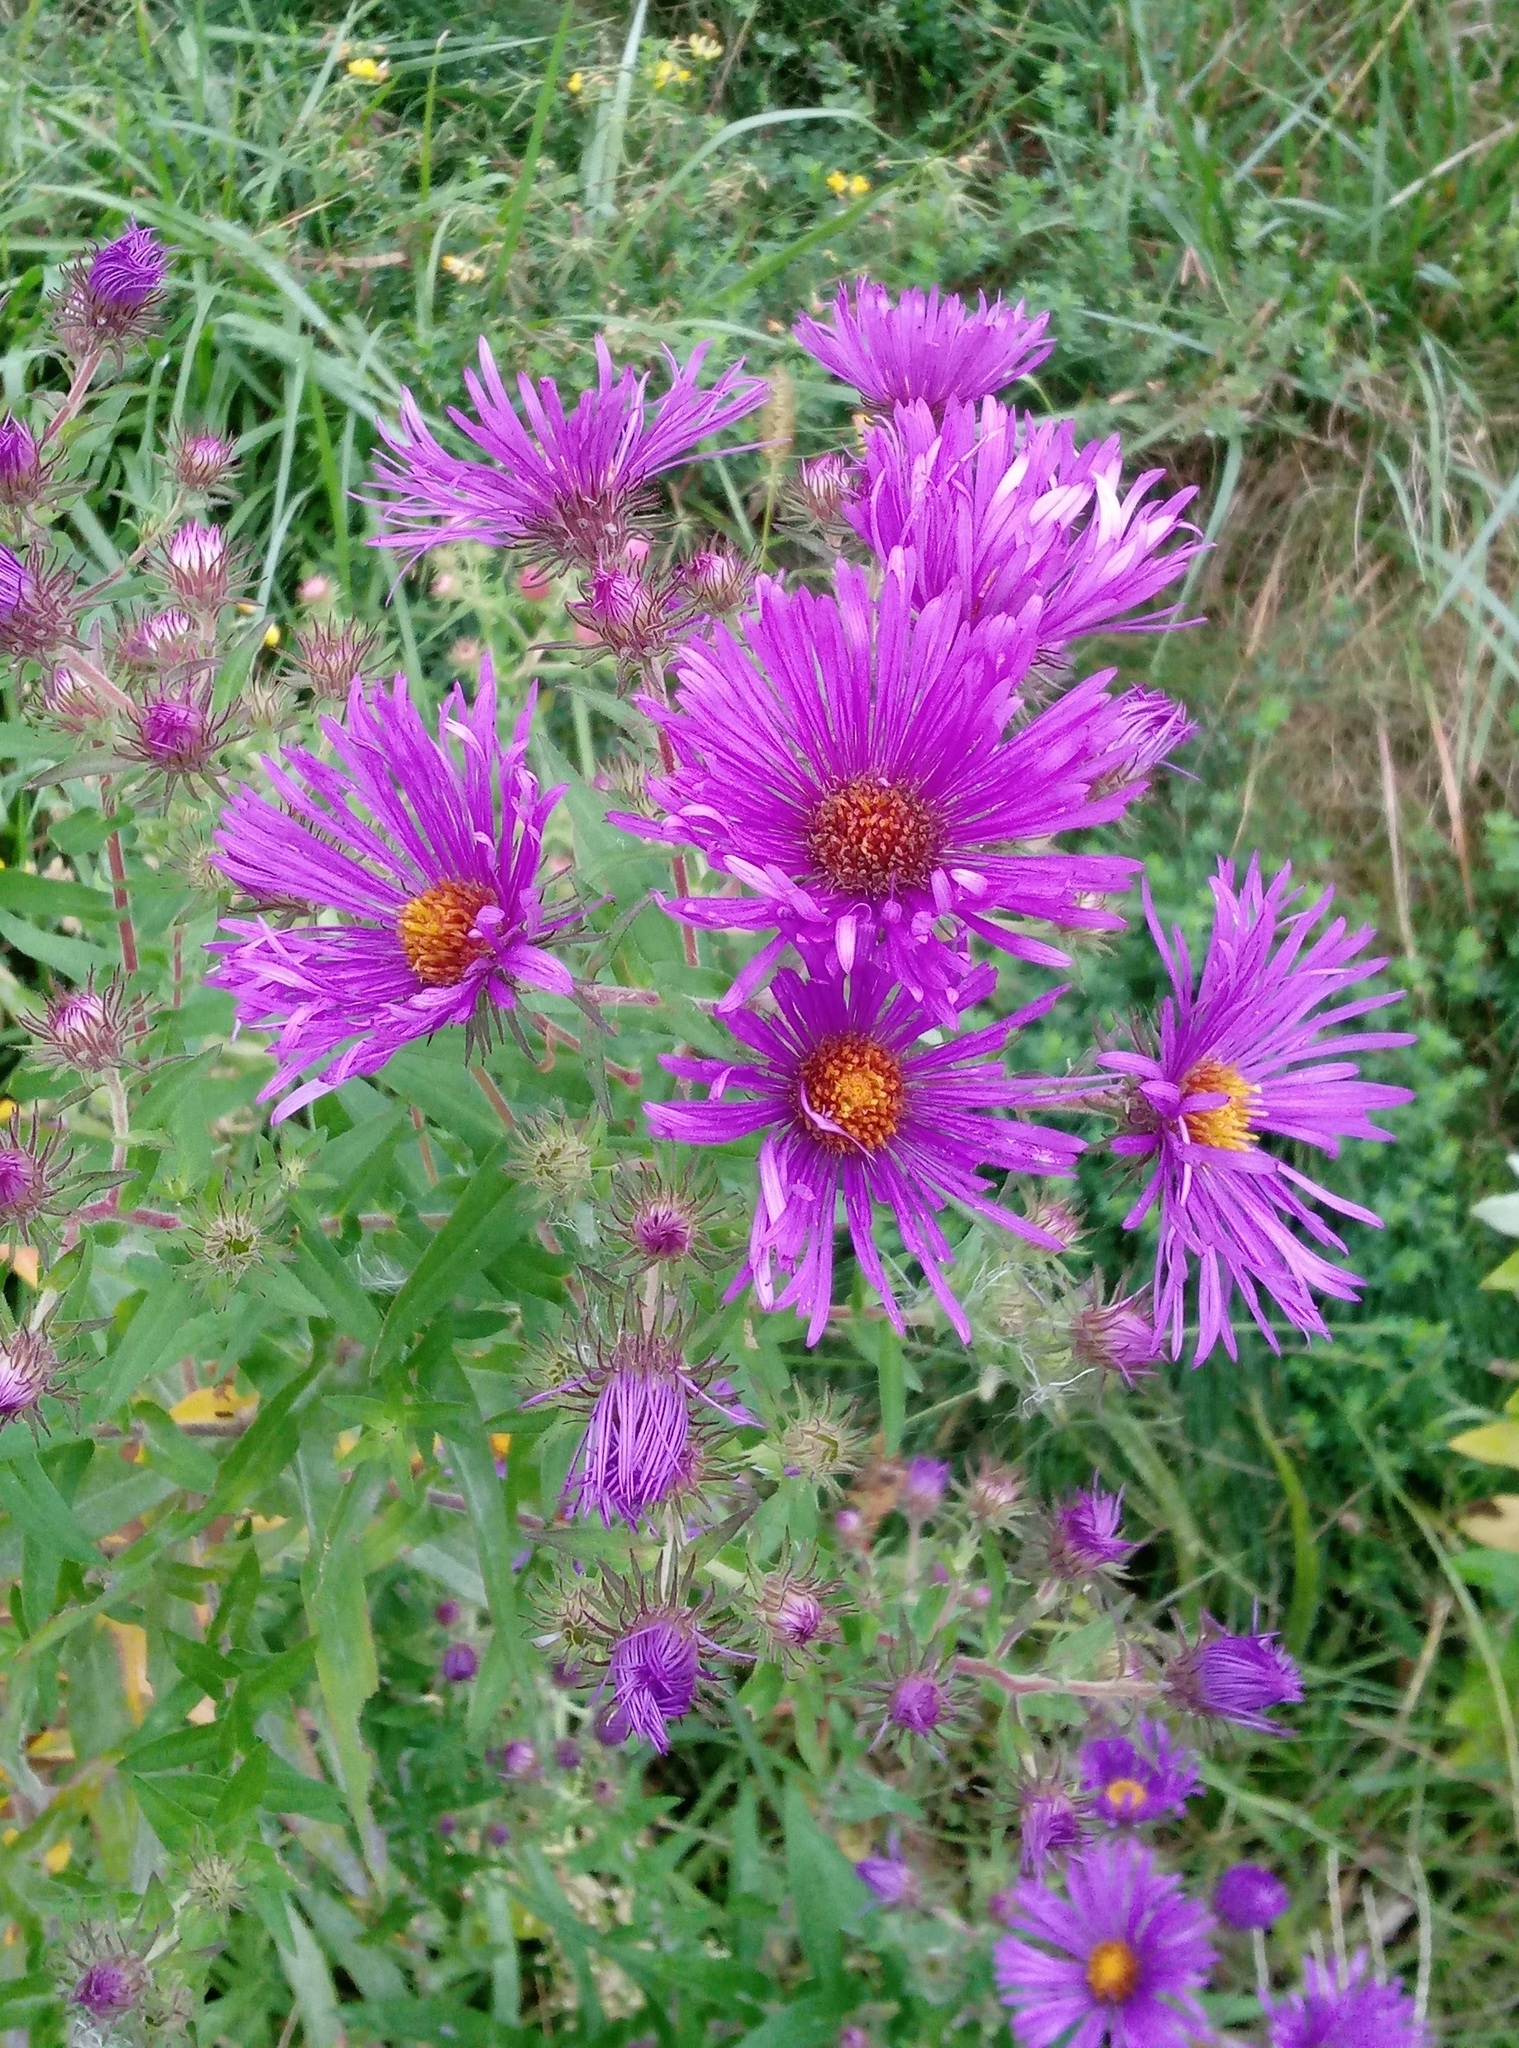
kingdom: Plantae
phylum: Tracheophyta
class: Magnoliopsida
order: Asterales
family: Asteraceae
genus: Symphyotrichum
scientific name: Symphyotrichum novae-angliae
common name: Michaelmas daisy
